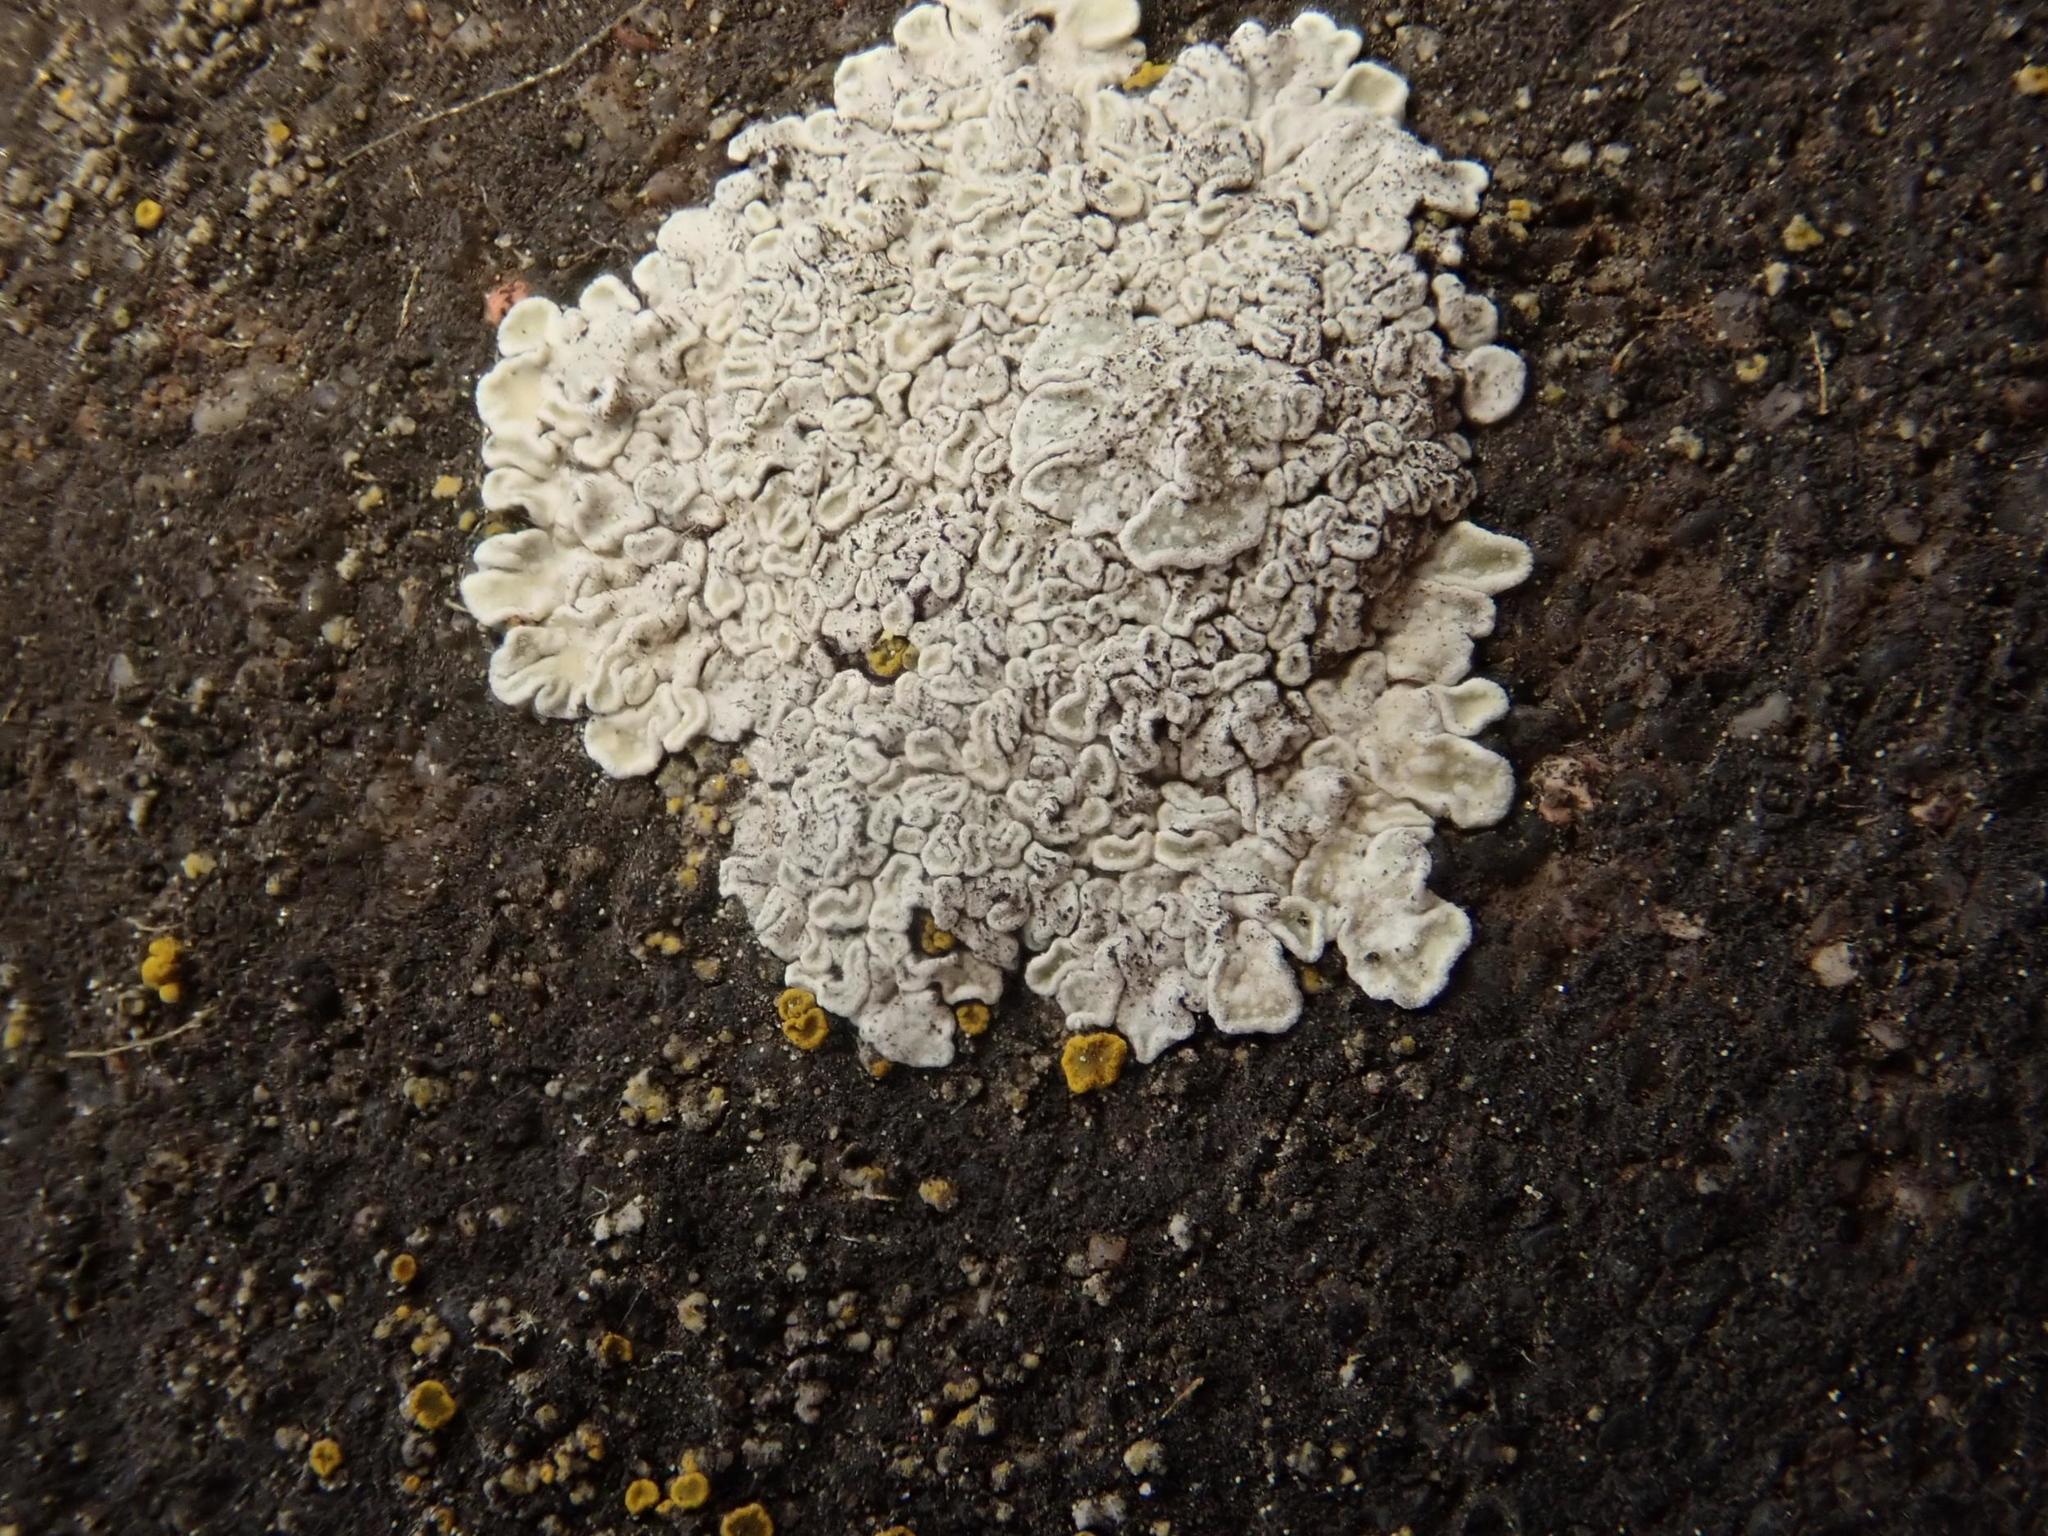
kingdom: Fungi
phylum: Ascomycota
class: Lecanoromycetes
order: Lecanorales
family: Lecanoraceae
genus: Protoparmeliopsis
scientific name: Protoparmeliopsis muralis
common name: Stonewall rim lichen
